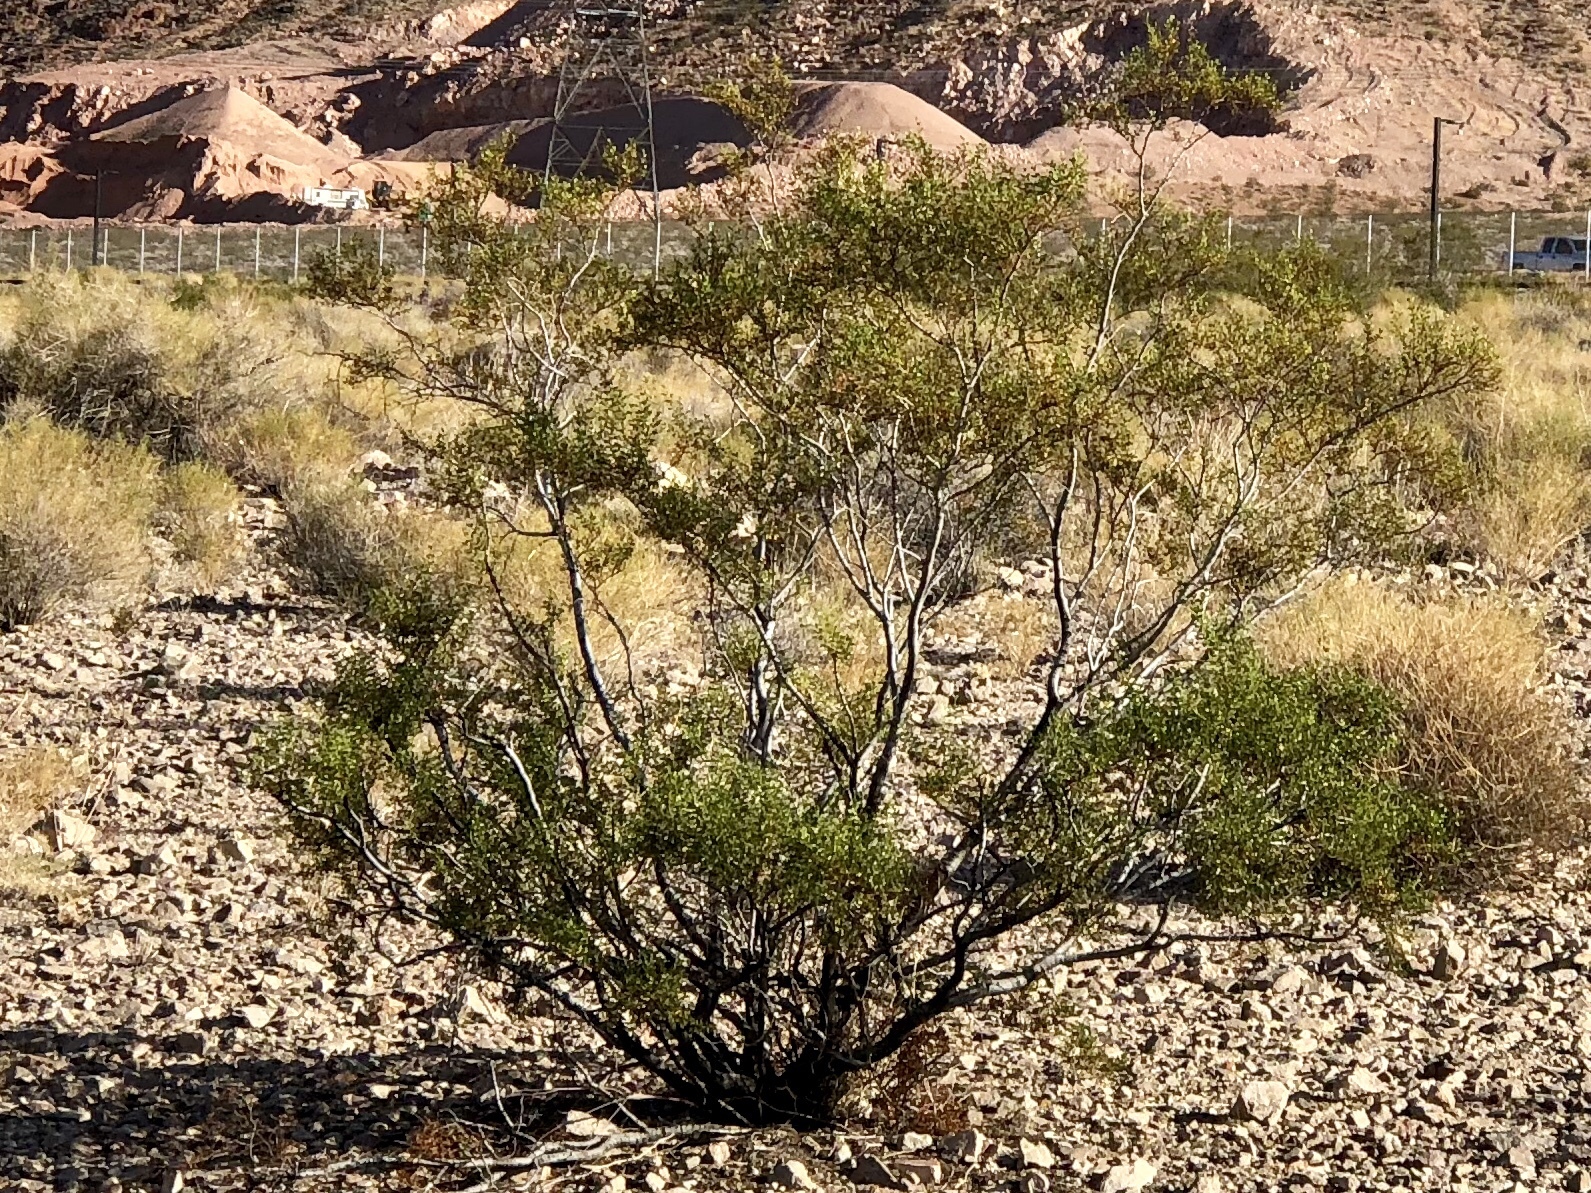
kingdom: Plantae
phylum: Tracheophyta
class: Magnoliopsida
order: Zygophyllales
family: Zygophyllaceae
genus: Larrea
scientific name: Larrea tridentata
